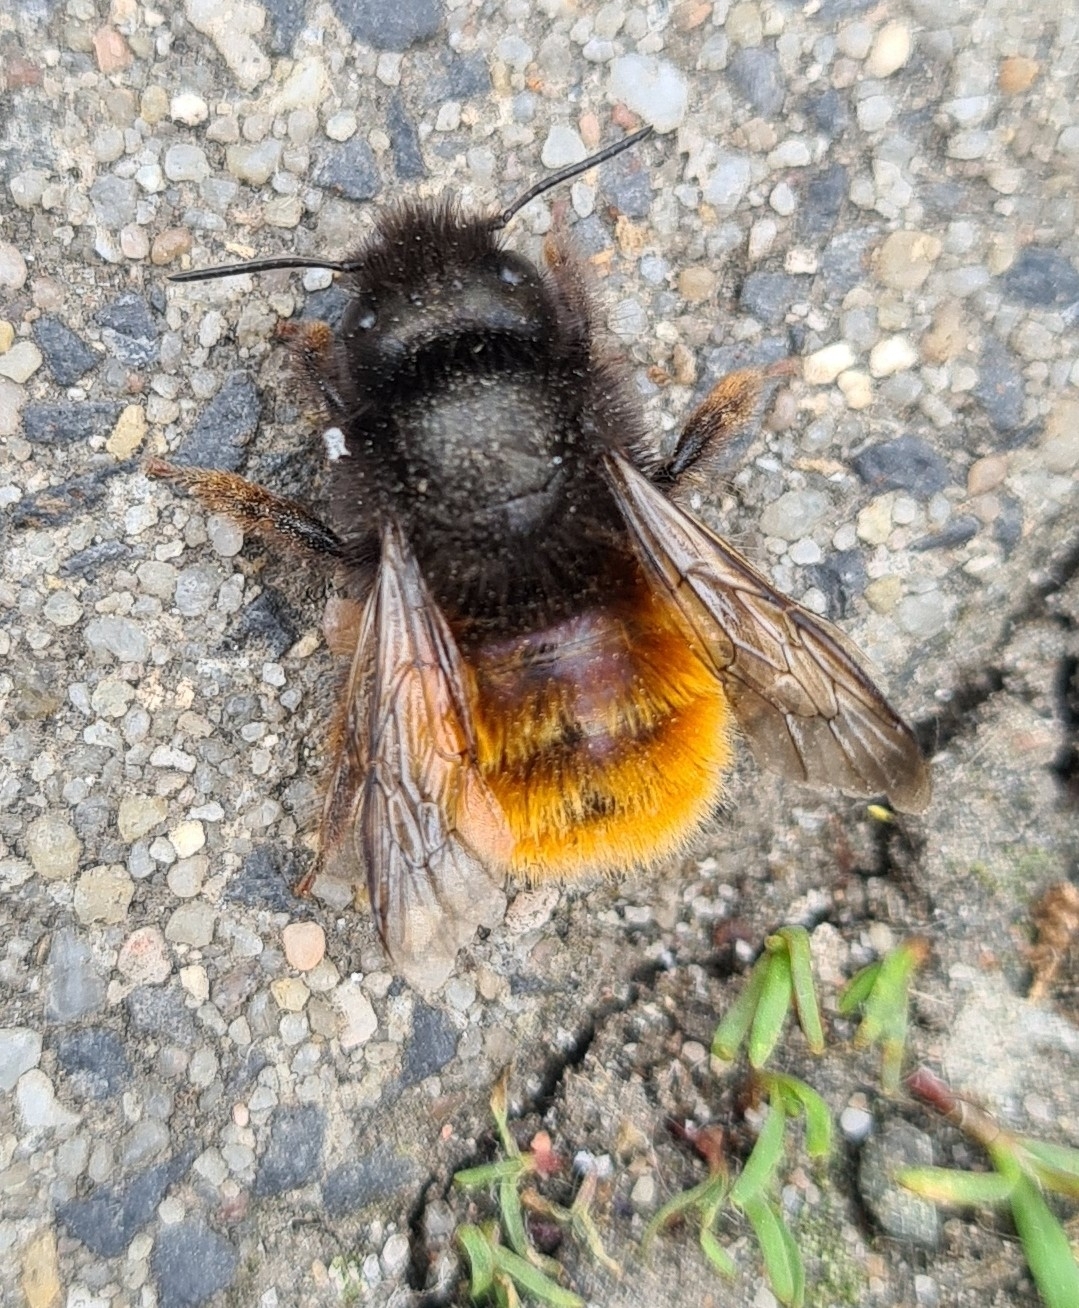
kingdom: Animalia
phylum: Arthropoda
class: Insecta
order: Hymenoptera
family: Megachilidae
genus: Osmia
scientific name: Osmia cornuta
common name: Mason bee
